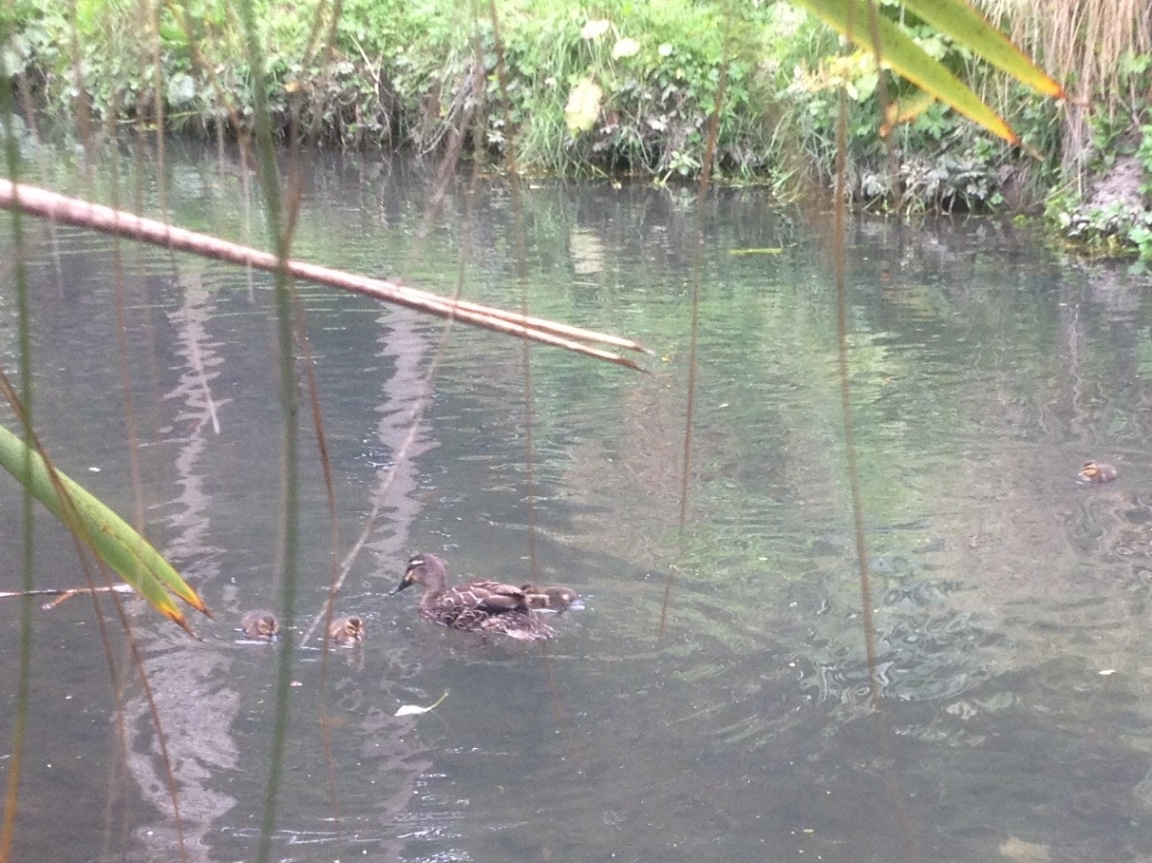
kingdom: Animalia
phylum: Chordata
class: Aves
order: Anseriformes
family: Anatidae
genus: Anas
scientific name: Anas
